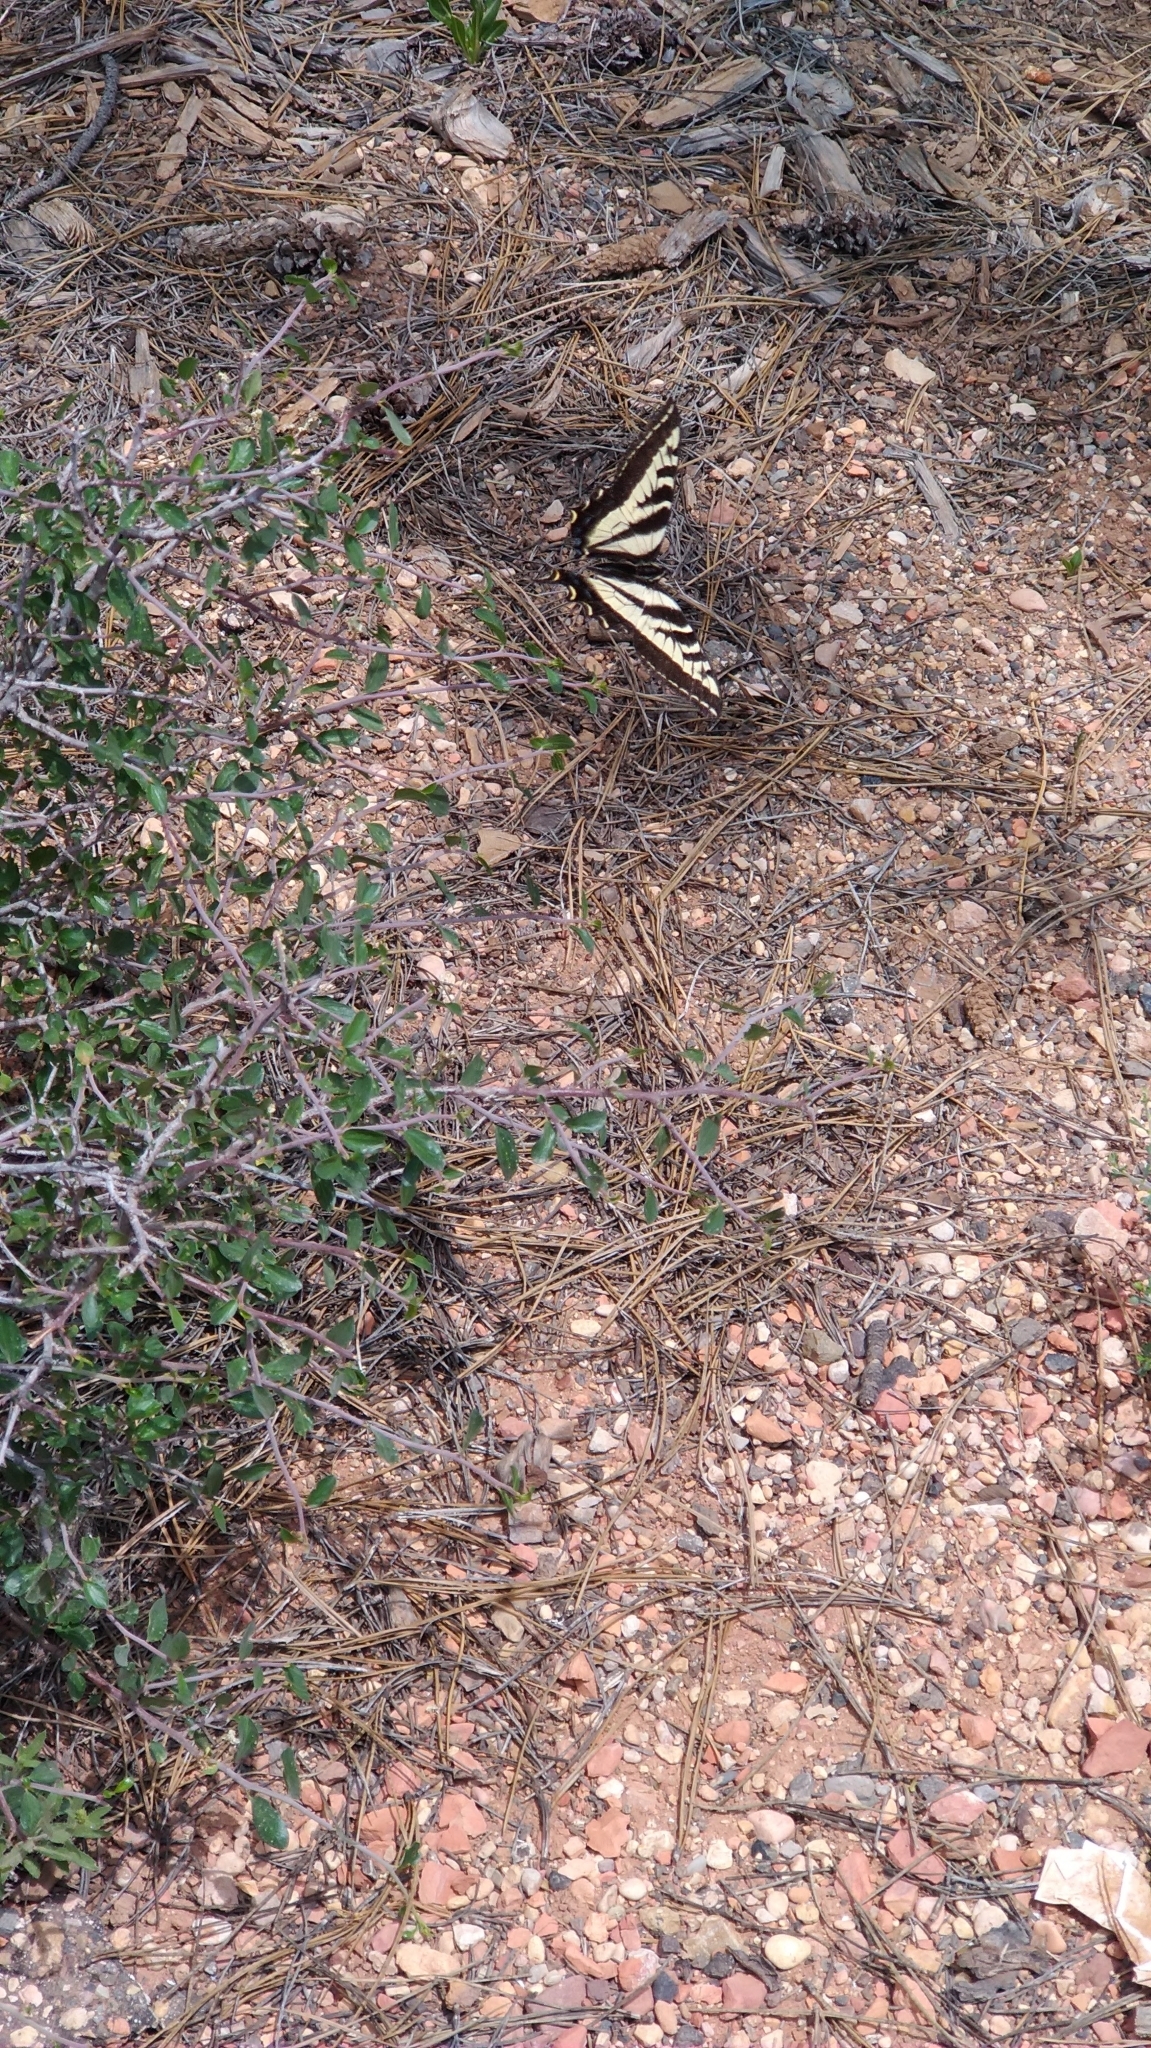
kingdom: Animalia
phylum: Arthropoda
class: Insecta
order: Lepidoptera
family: Papilionidae
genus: Papilio
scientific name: Papilio eurymedon
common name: Pale tiger swallowtail
